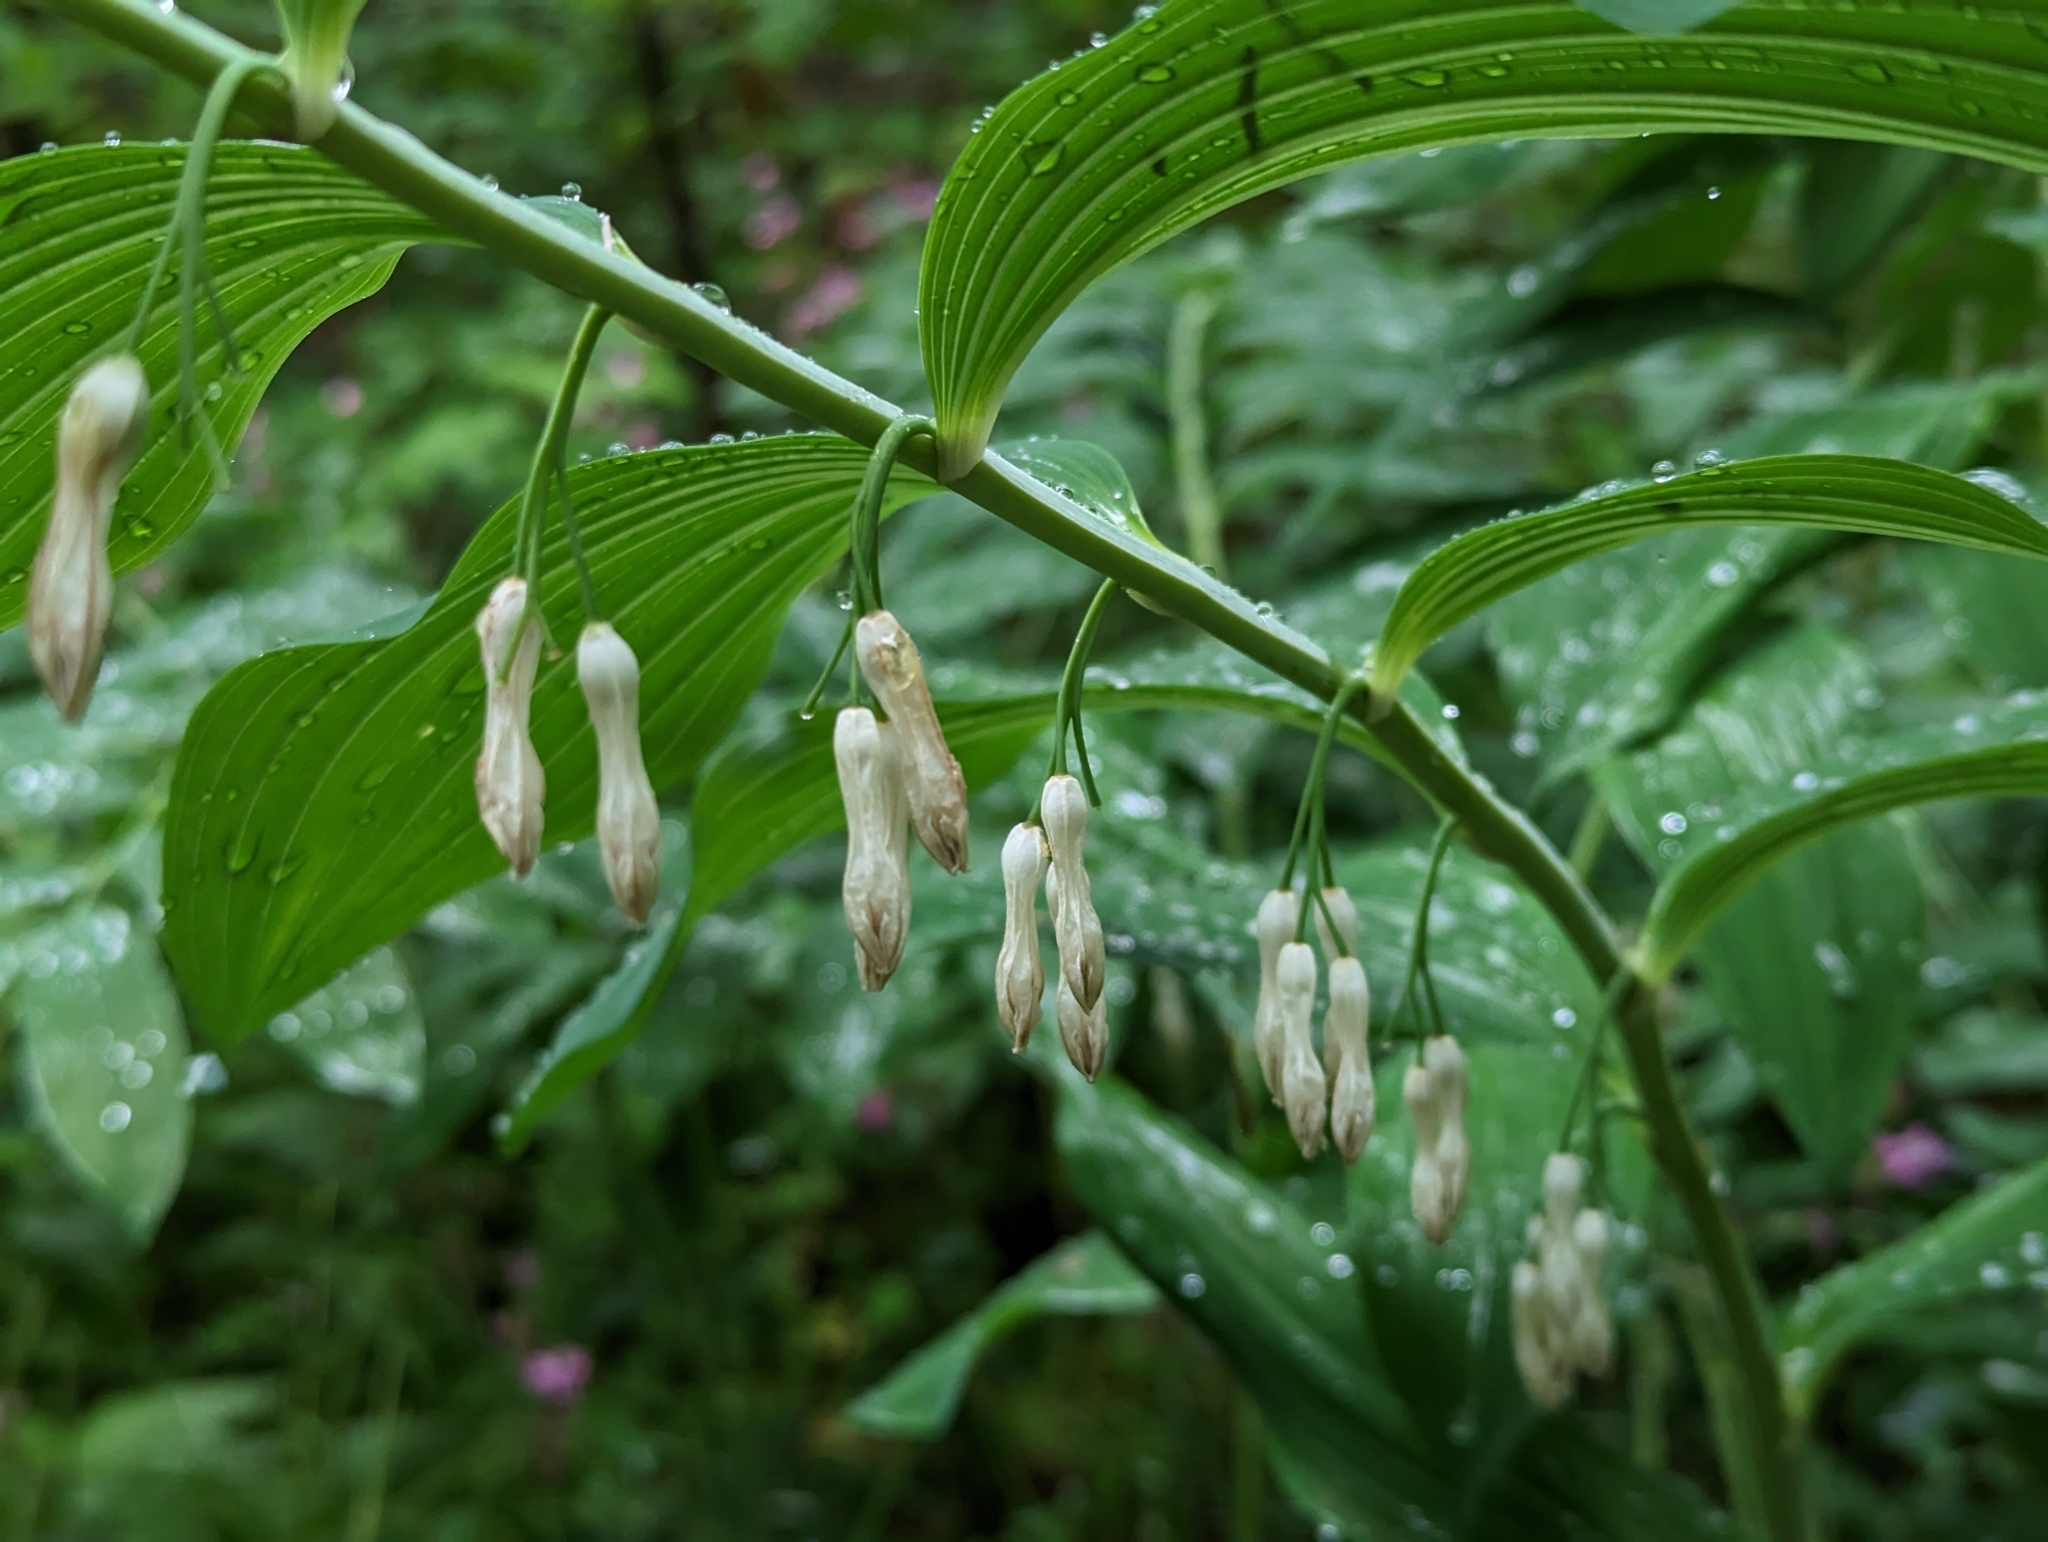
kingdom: Plantae
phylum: Tracheophyta
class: Liliopsida
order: Asparagales
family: Asparagaceae
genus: Polygonatum
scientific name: Polygonatum hybridum
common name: Garden solomon's-seal
